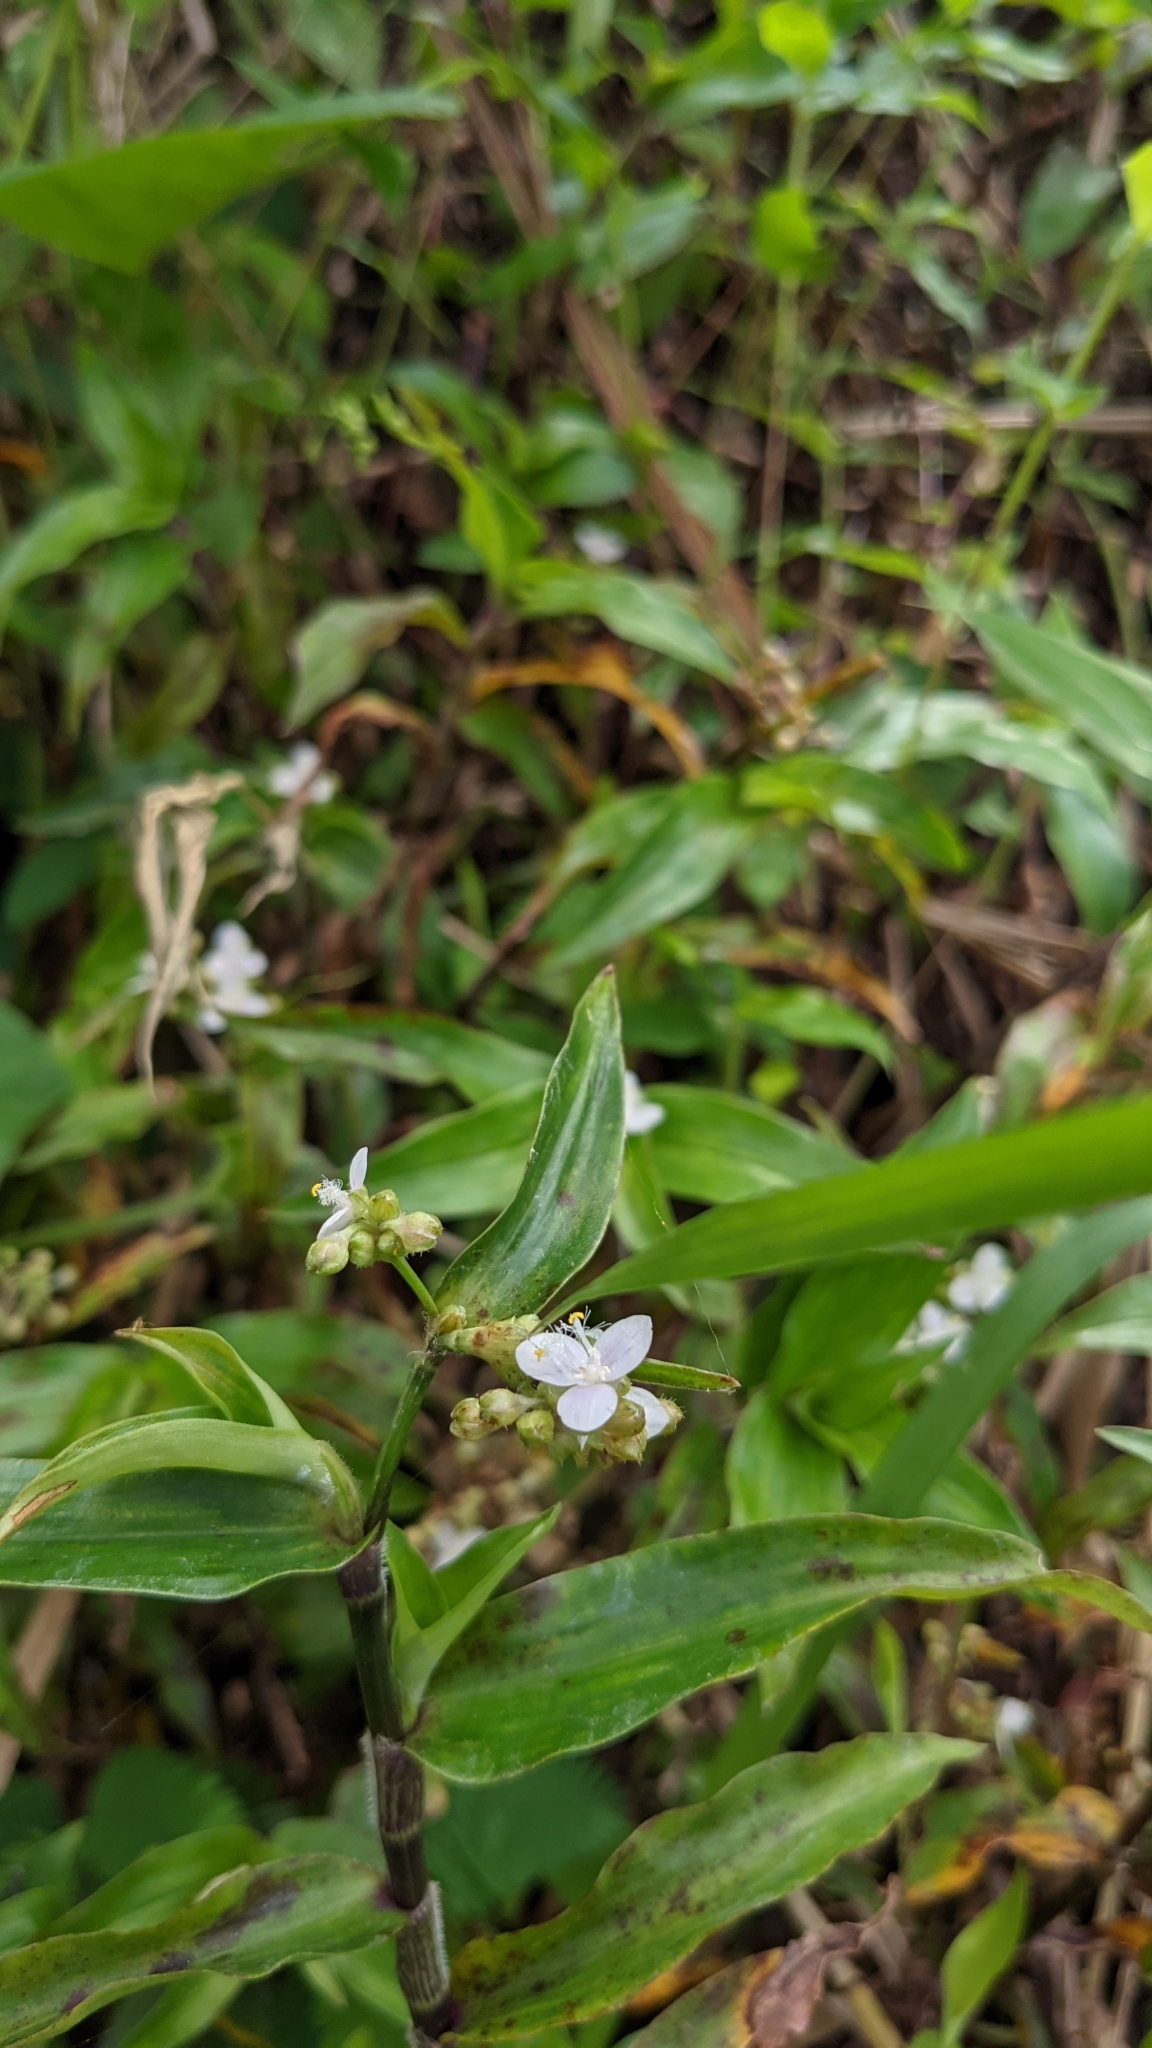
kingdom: Plantae
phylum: Tracheophyta
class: Liliopsida
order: Commelinales
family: Commelinaceae
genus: Callisia
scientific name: Callisia serrulata
